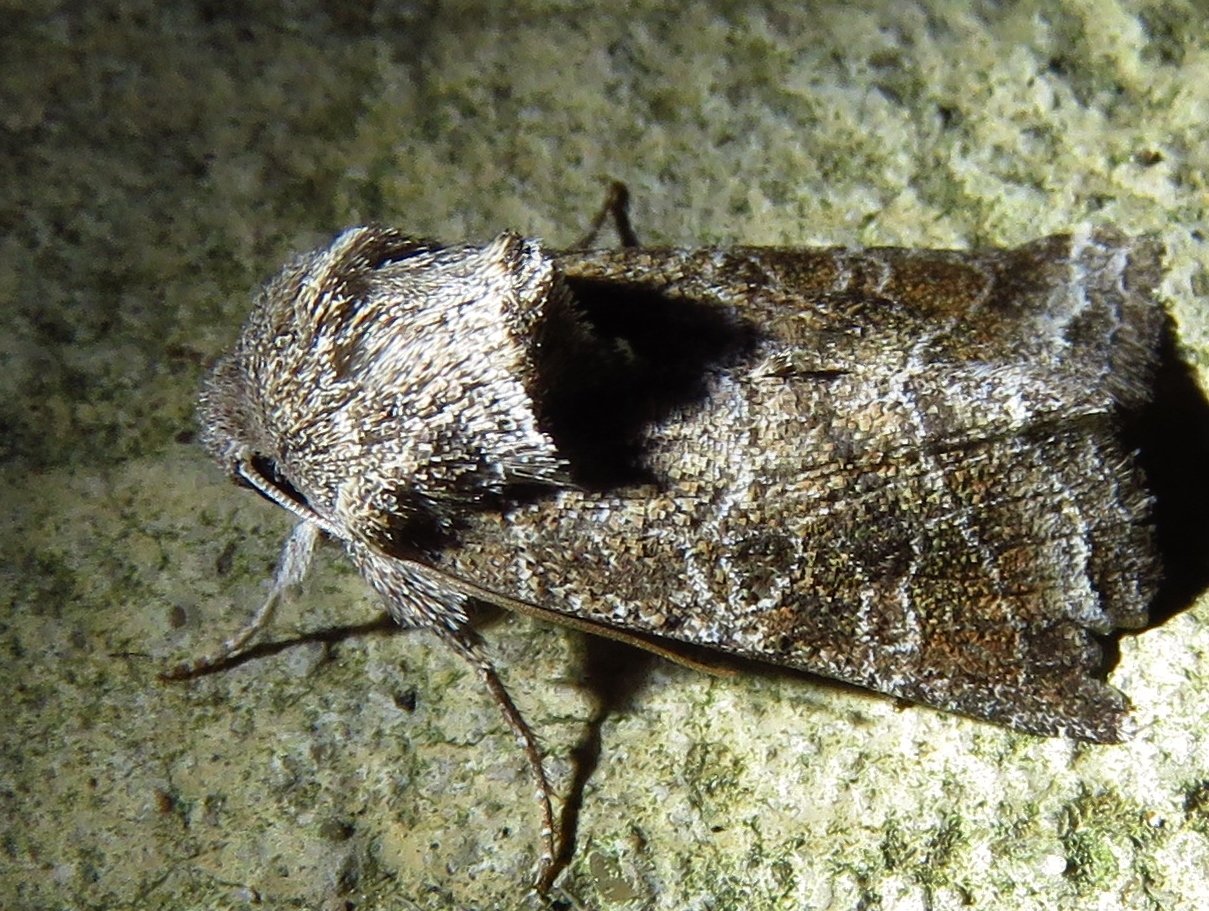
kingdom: Animalia
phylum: Arthropoda
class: Insecta
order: Lepidoptera
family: Noctuidae
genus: Lacinipolia
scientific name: Lacinipolia erecta
